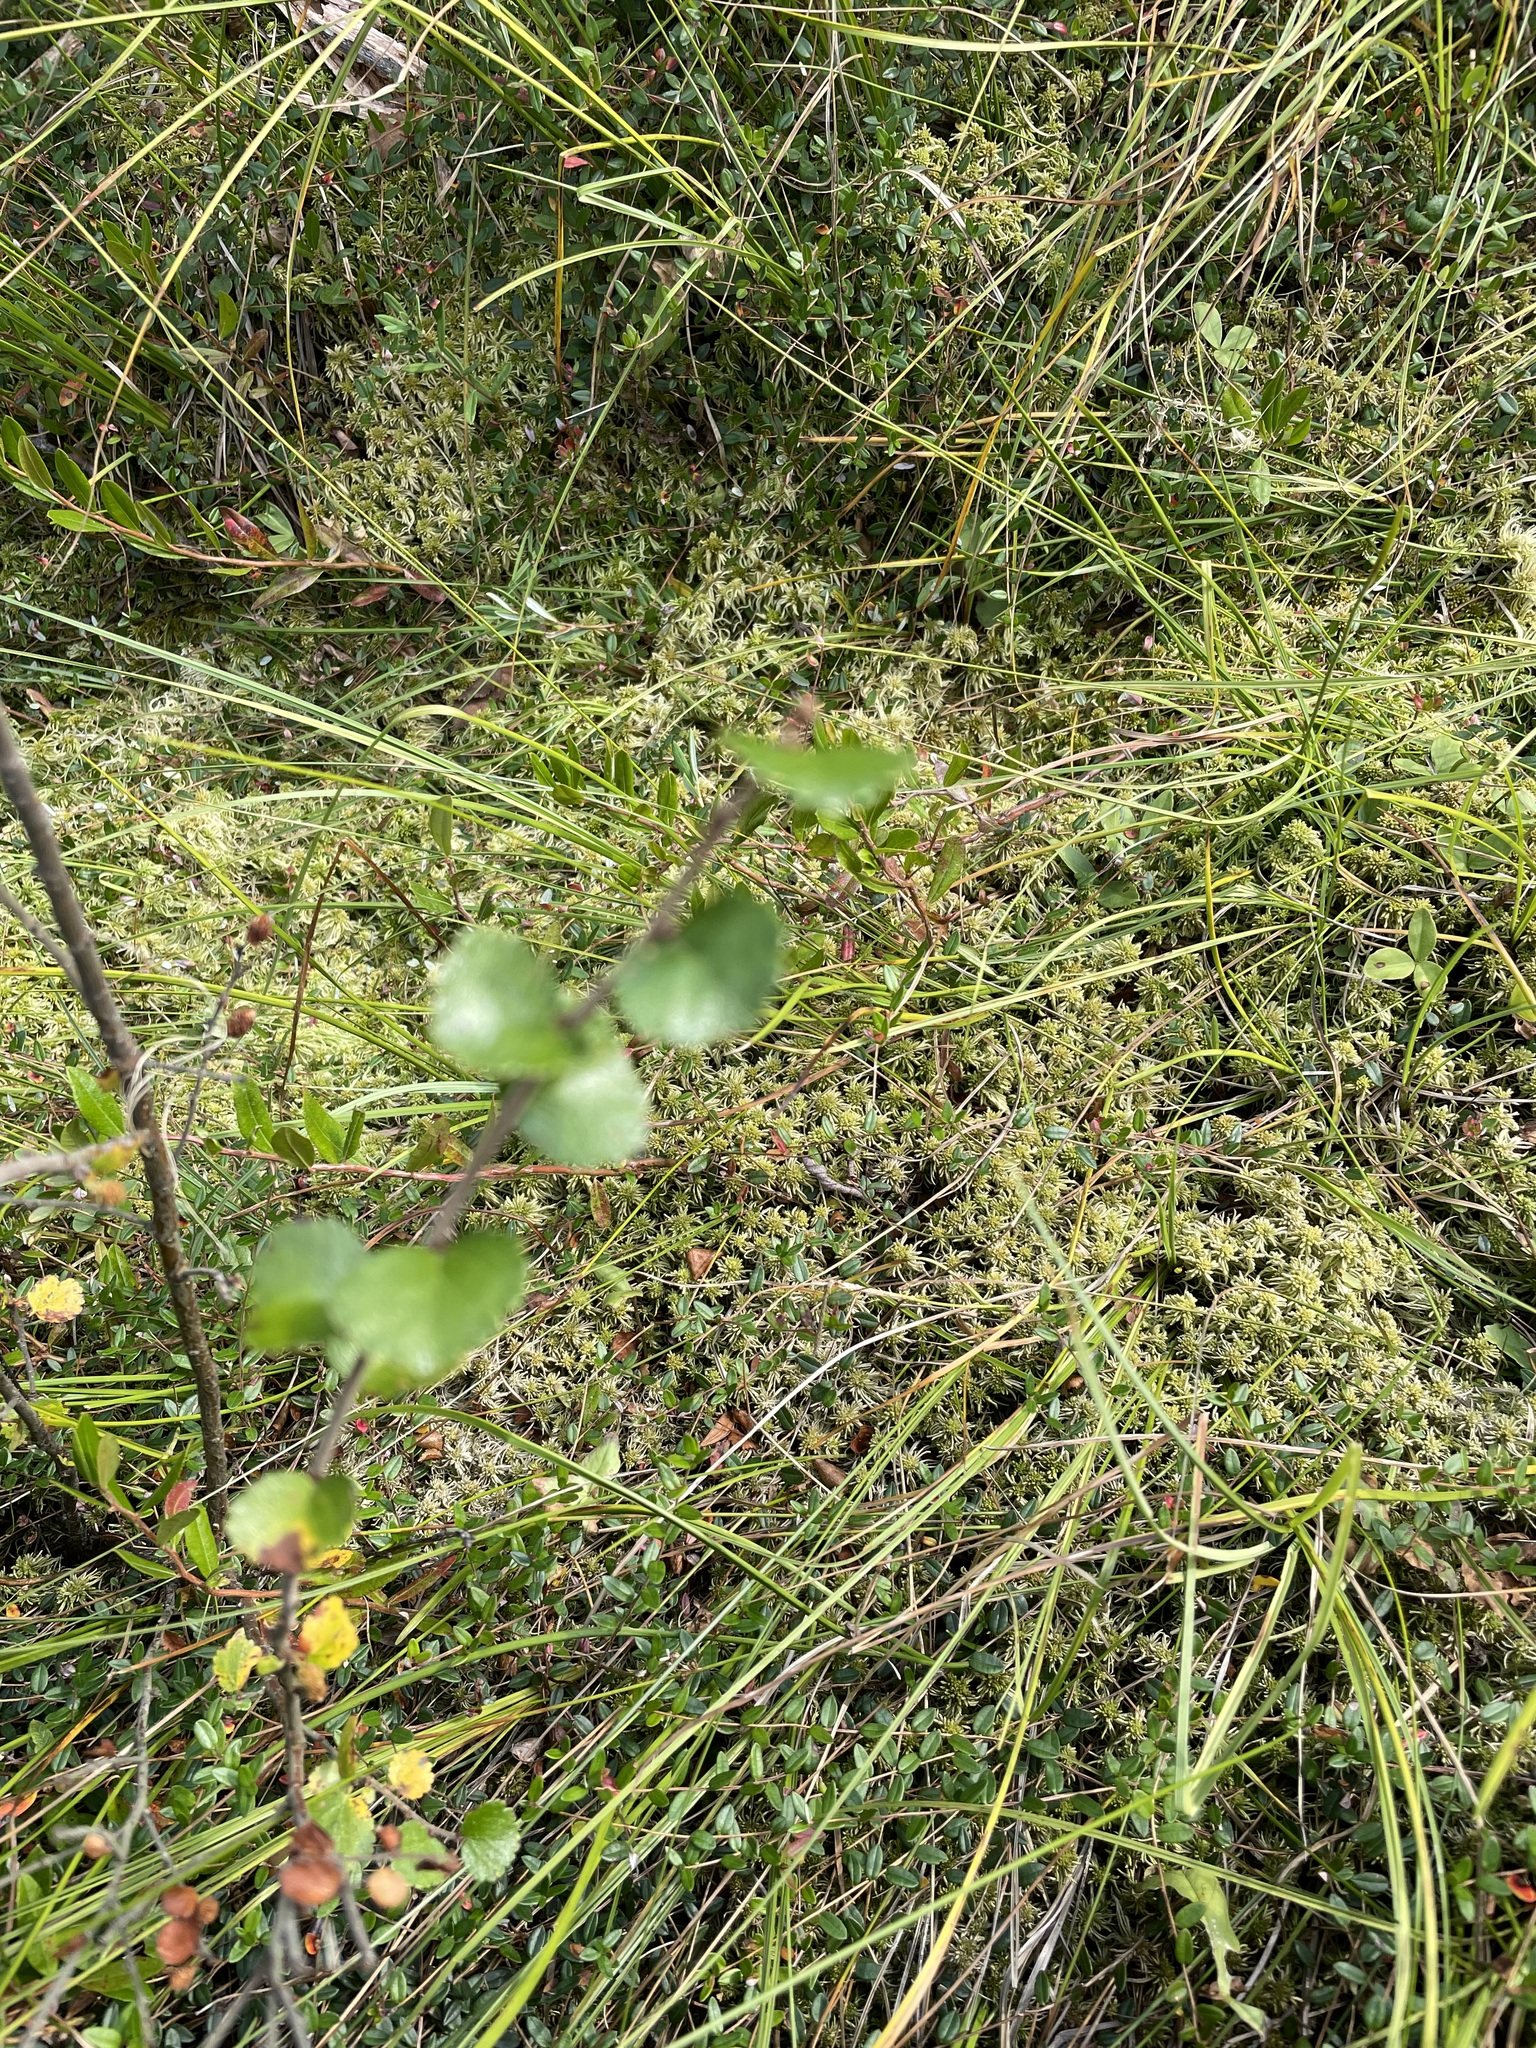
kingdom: Plantae
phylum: Tracheophyta
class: Magnoliopsida
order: Fagales
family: Betulaceae
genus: Betula
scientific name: Betula nana
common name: Arctic dwarf birch
